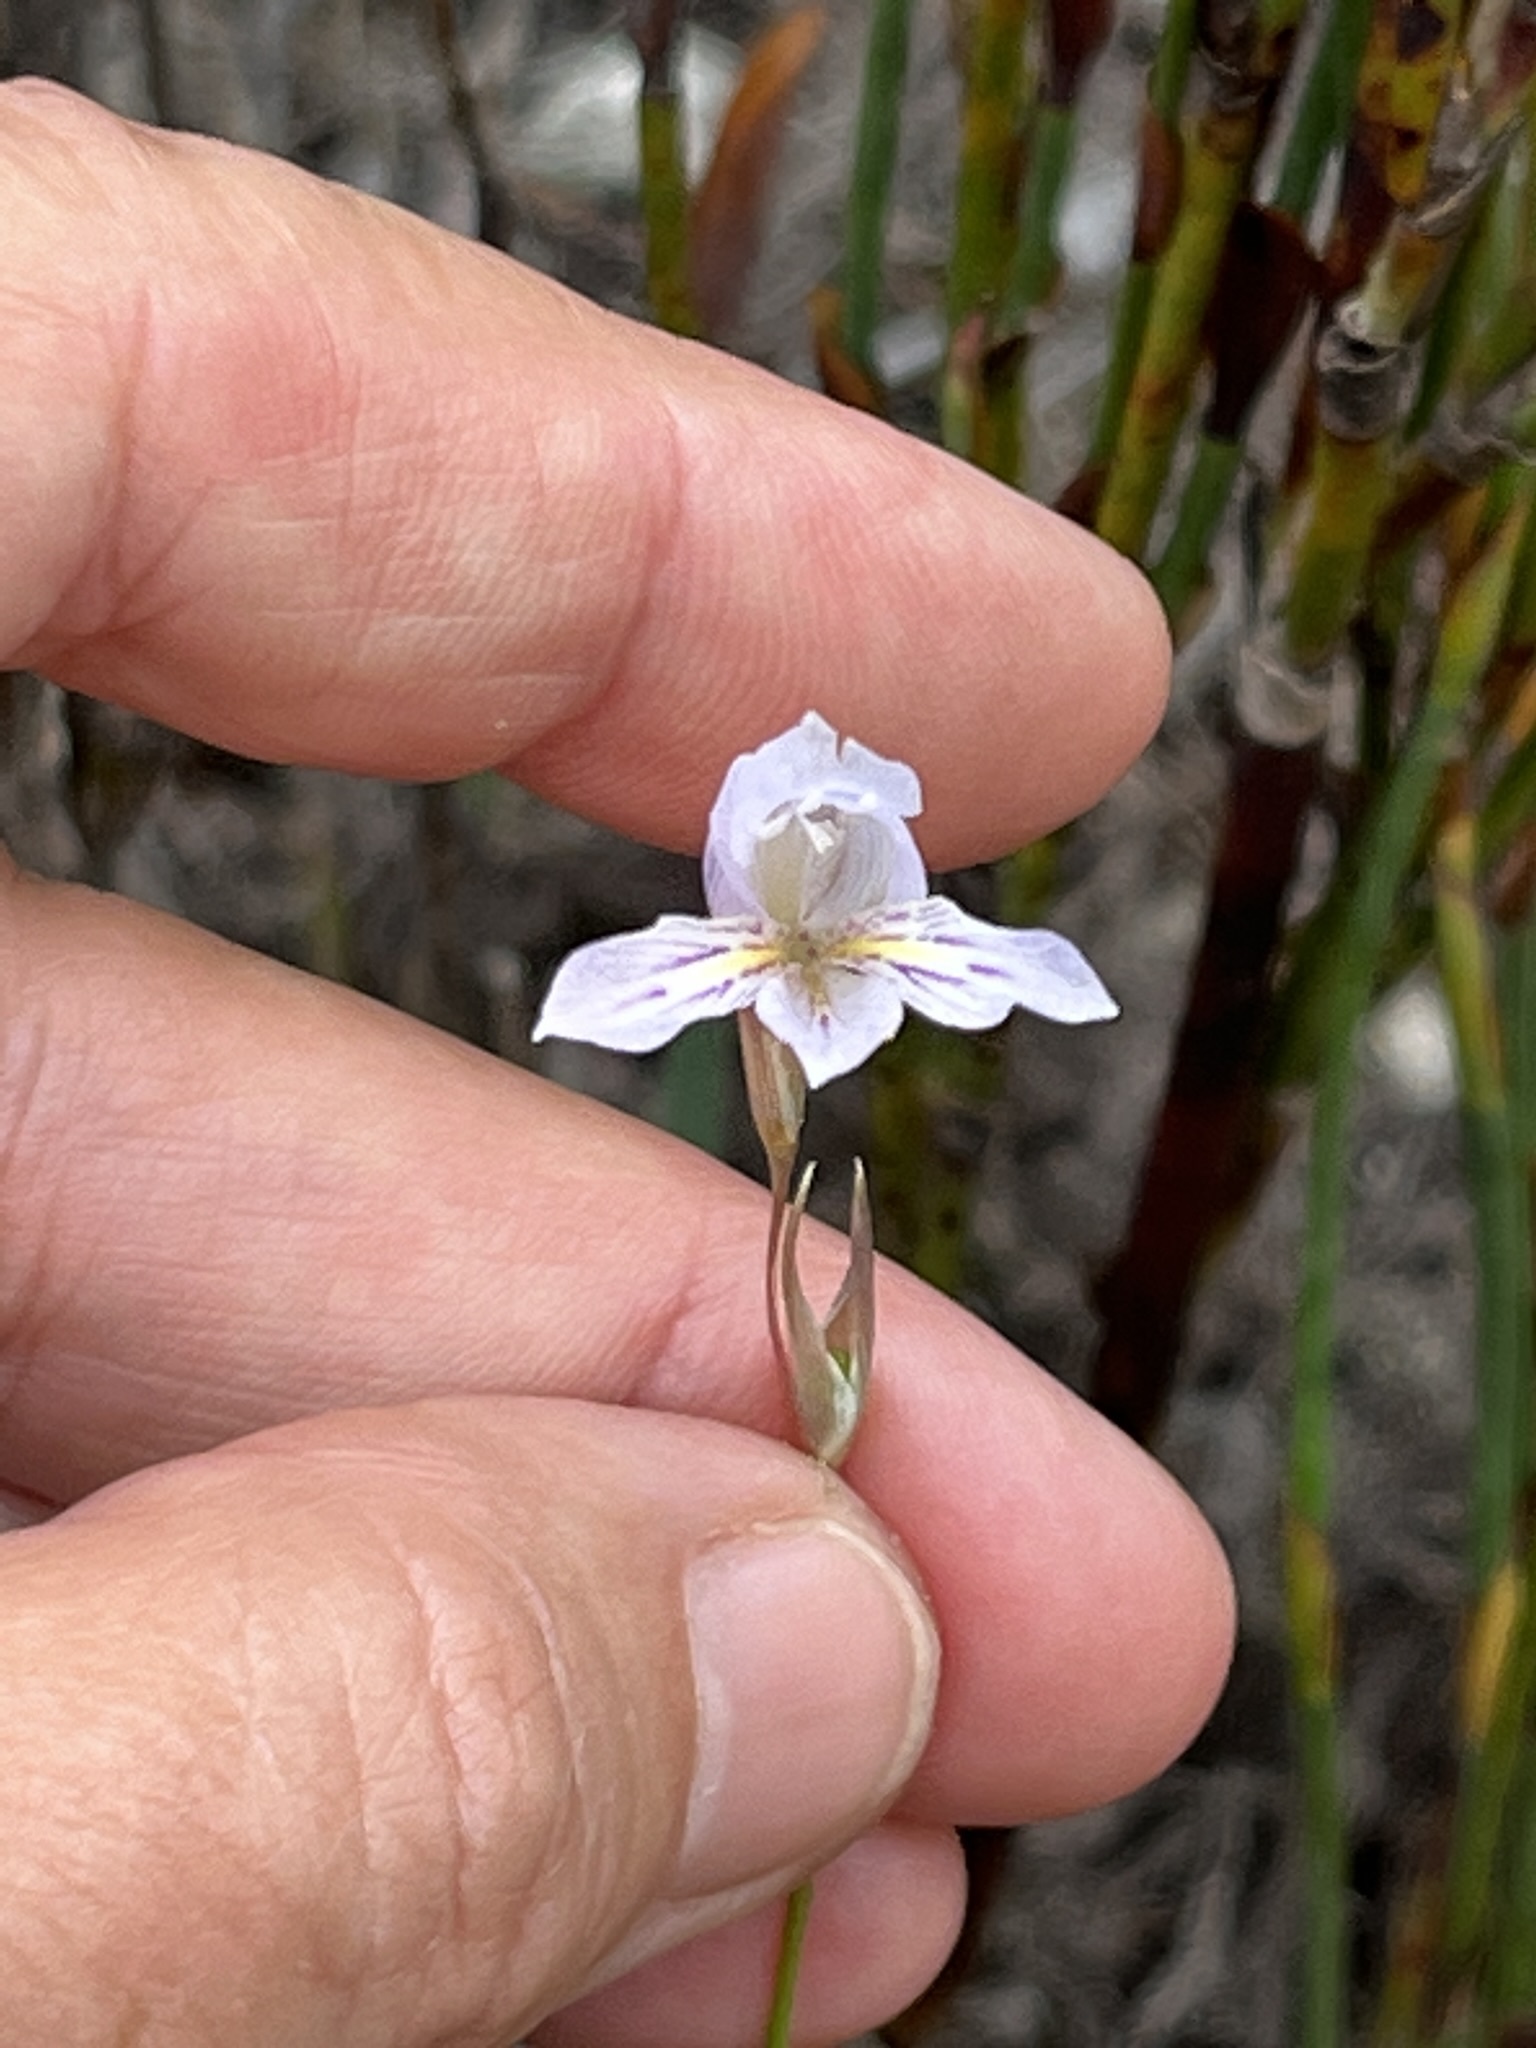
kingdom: Plantae
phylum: Tracheophyta
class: Liliopsida
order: Asparagales
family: Iridaceae
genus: Gladiolus
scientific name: Gladiolus vaginatus
